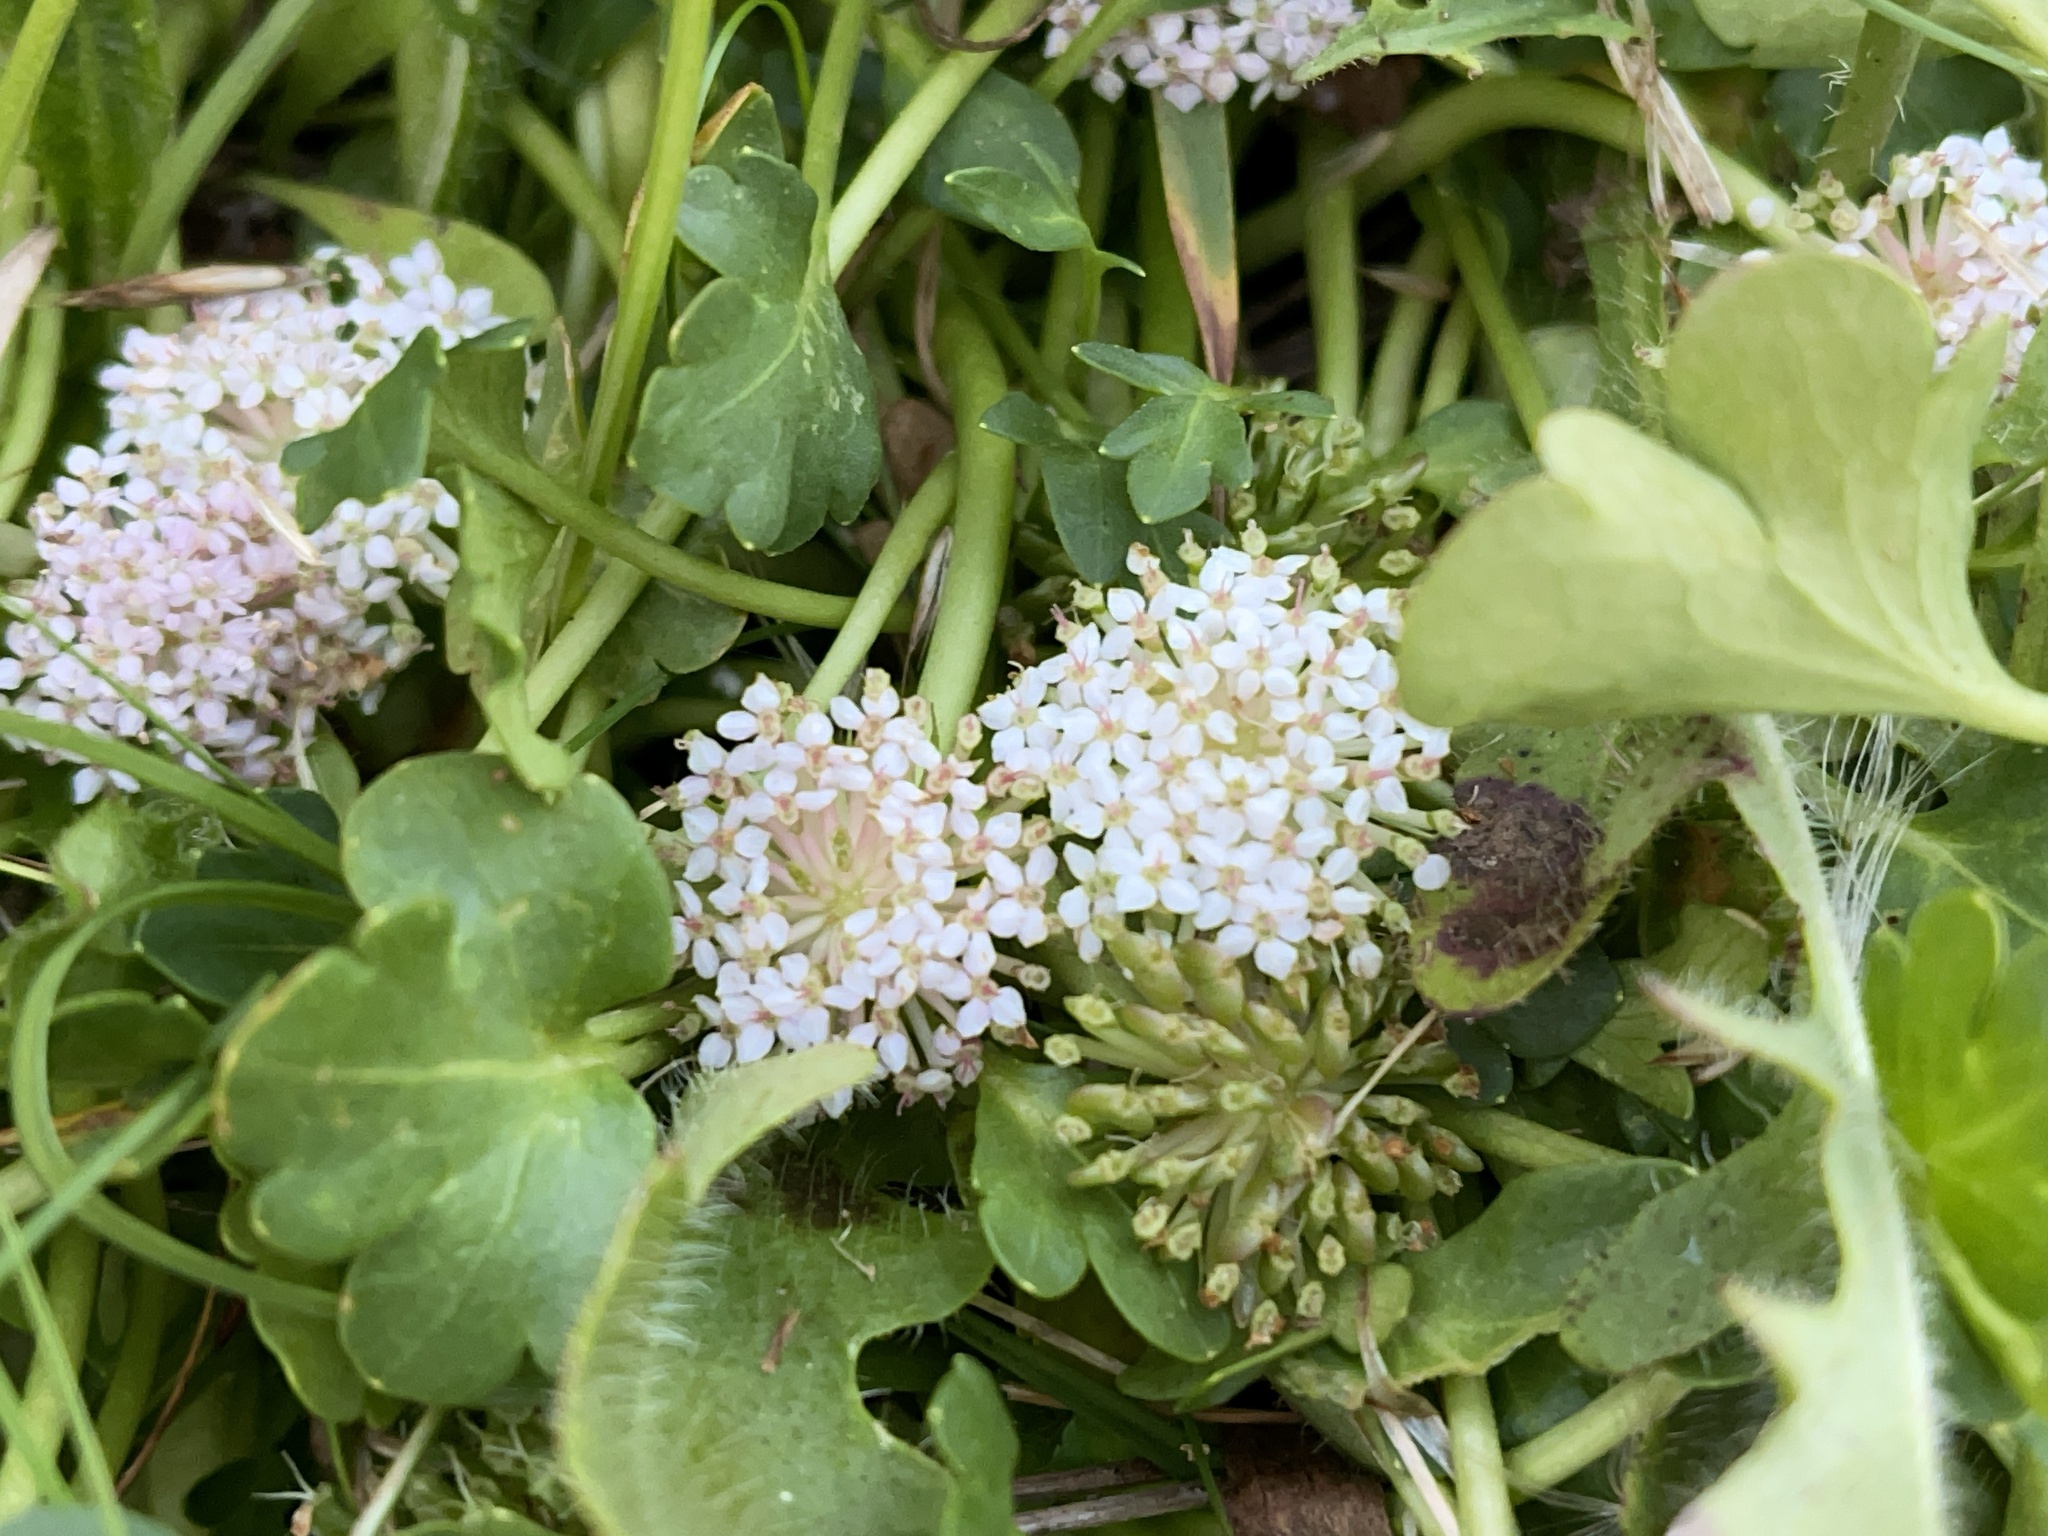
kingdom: Plantae
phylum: Tracheophyta
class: Magnoliopsida
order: Apiales
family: Araliaceae
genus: Trachymene
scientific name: Trachymene humilis
